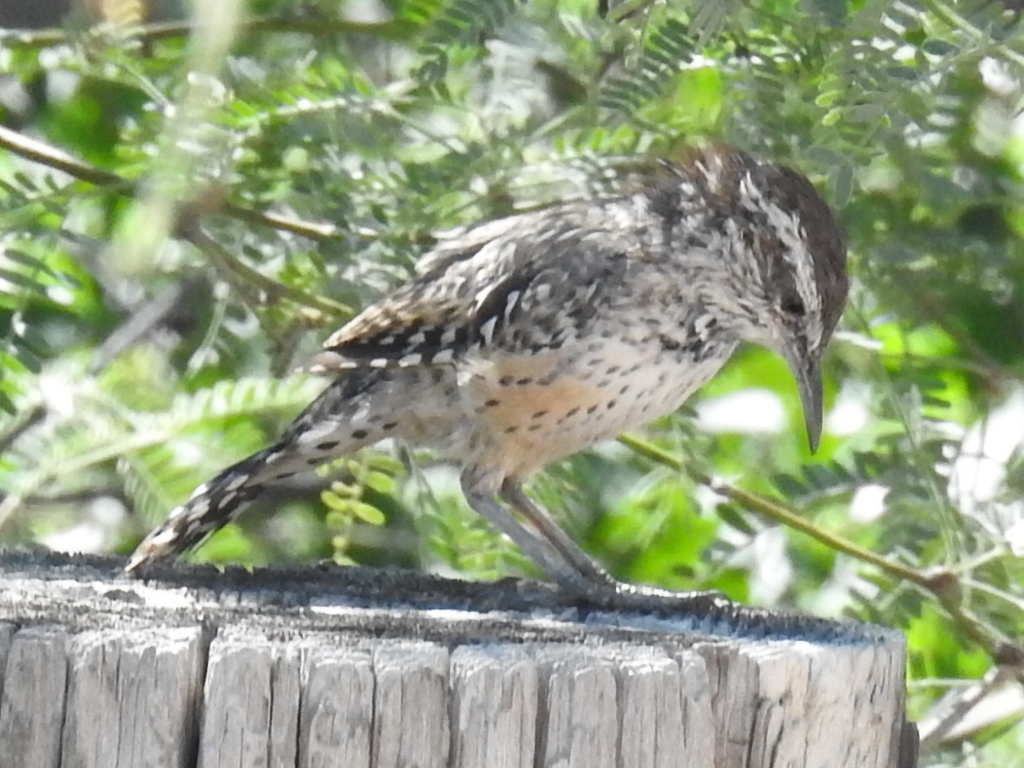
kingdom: Animalia
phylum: Chordata
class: Aves
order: Passeriformes
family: Troglodytidae
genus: Campylorhynchus
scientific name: Campylorhynchus brunneicapillus
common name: Cactus wren
